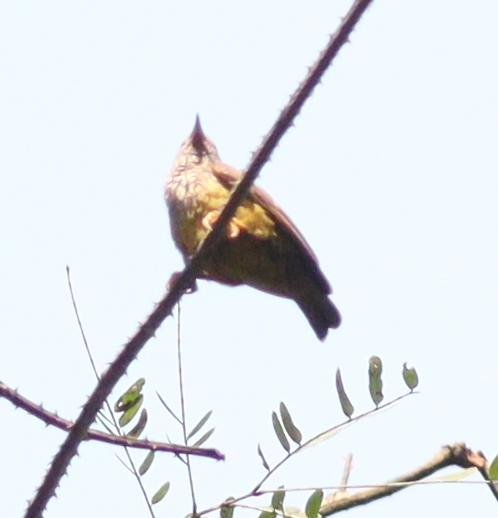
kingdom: Animalia
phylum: Chordata
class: Aves
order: Passeriformes
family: Cettiidae
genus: Pholidornis
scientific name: Pholidornis rushiae
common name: Tit-hylia
